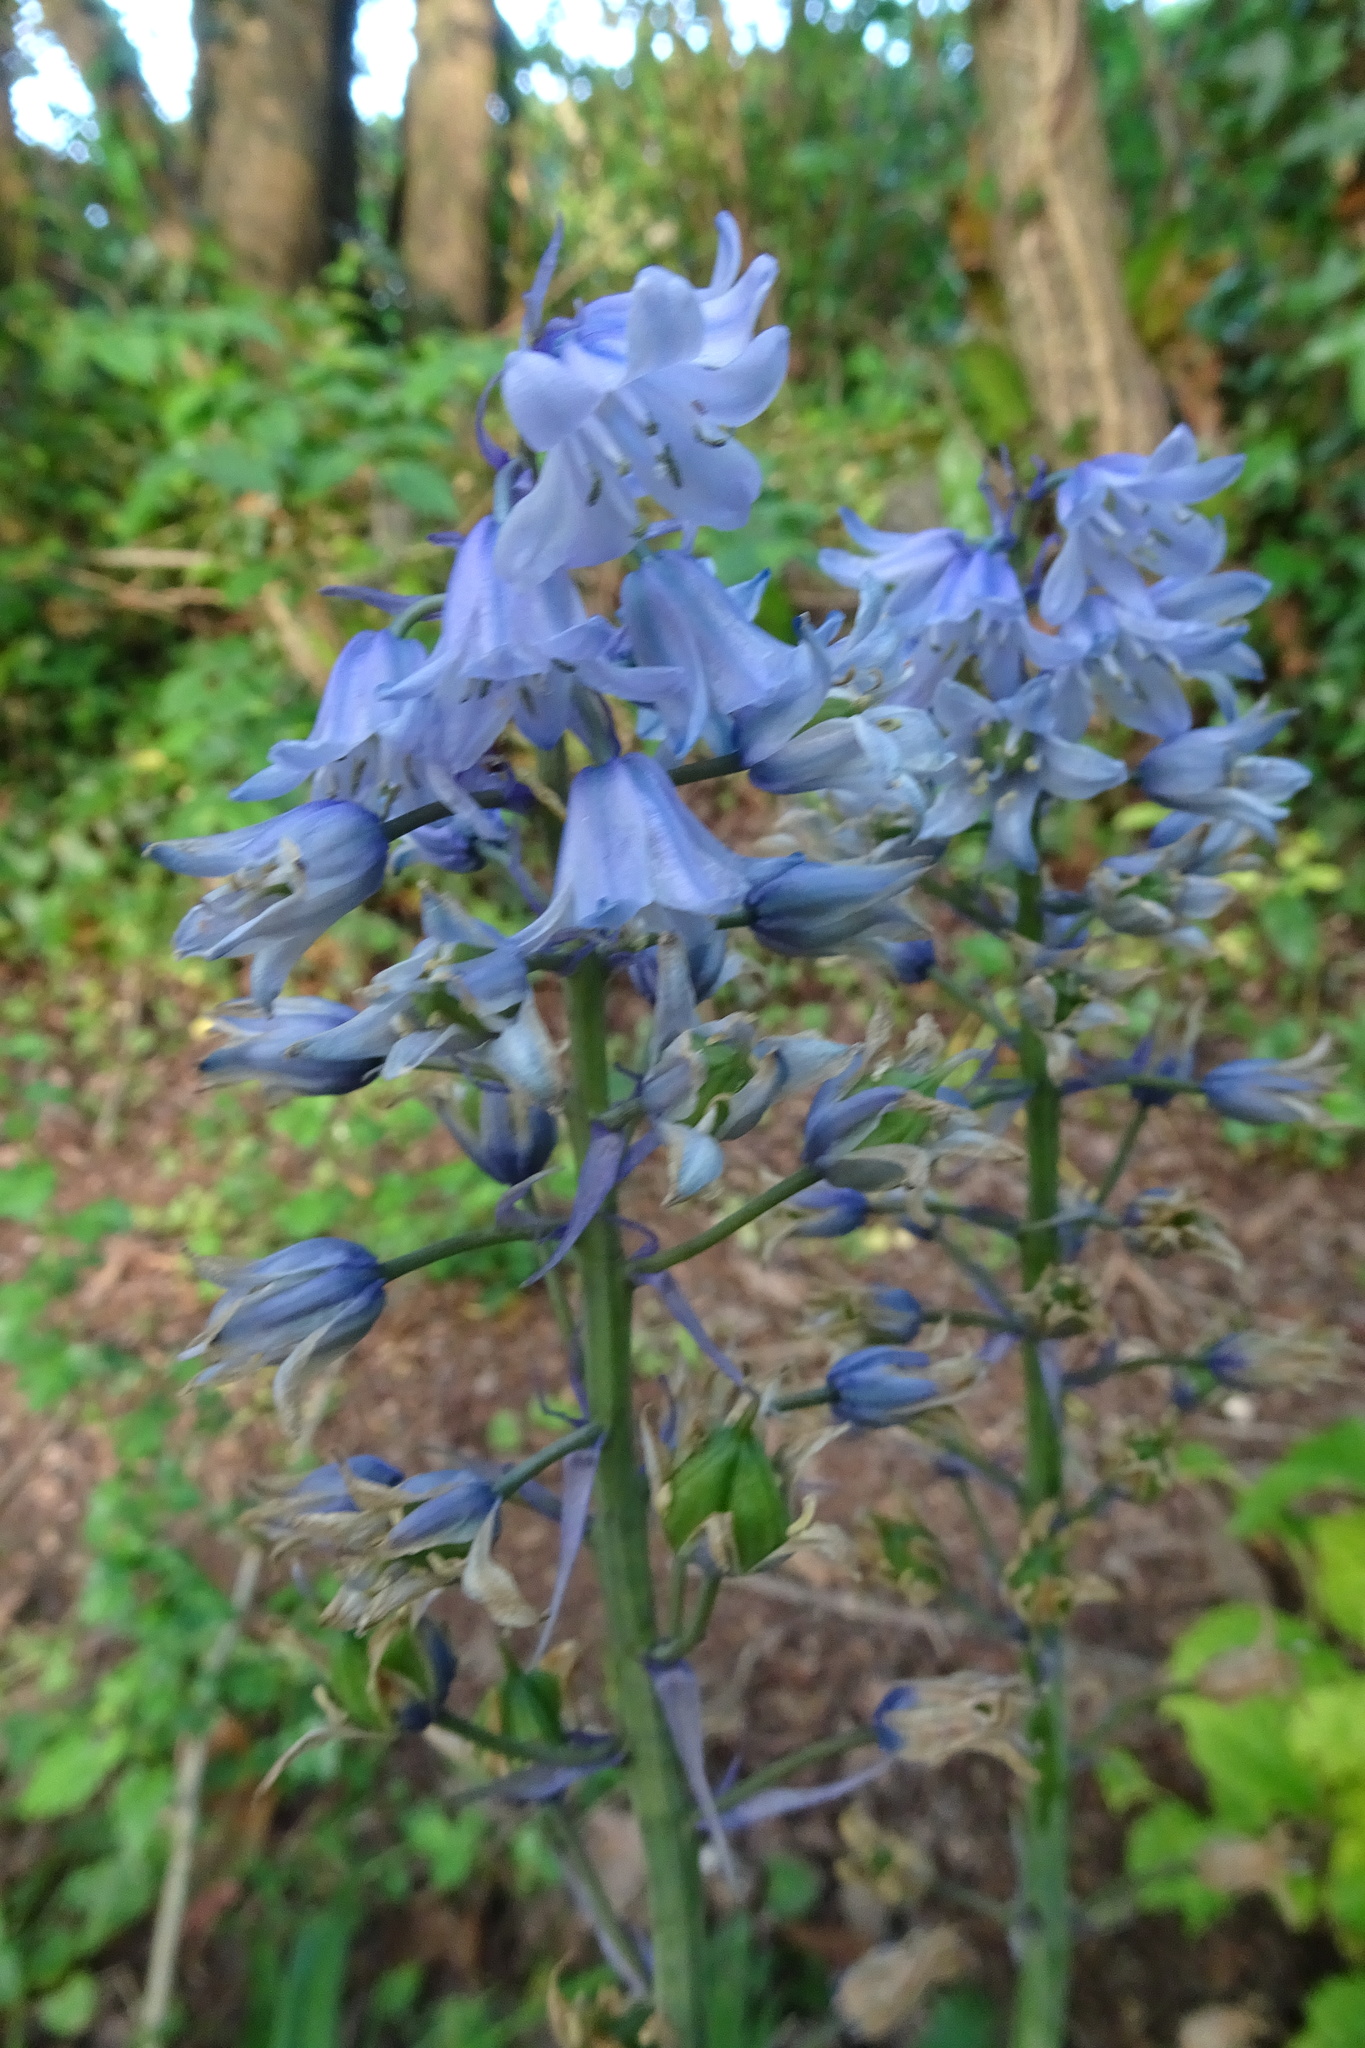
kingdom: Plantae
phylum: Tracheophyta
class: Liliopsida
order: Asparagales
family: Asparagaceae
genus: Hyacinthoides
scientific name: Hyacinthoides hispanica
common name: Spanish bluebell
